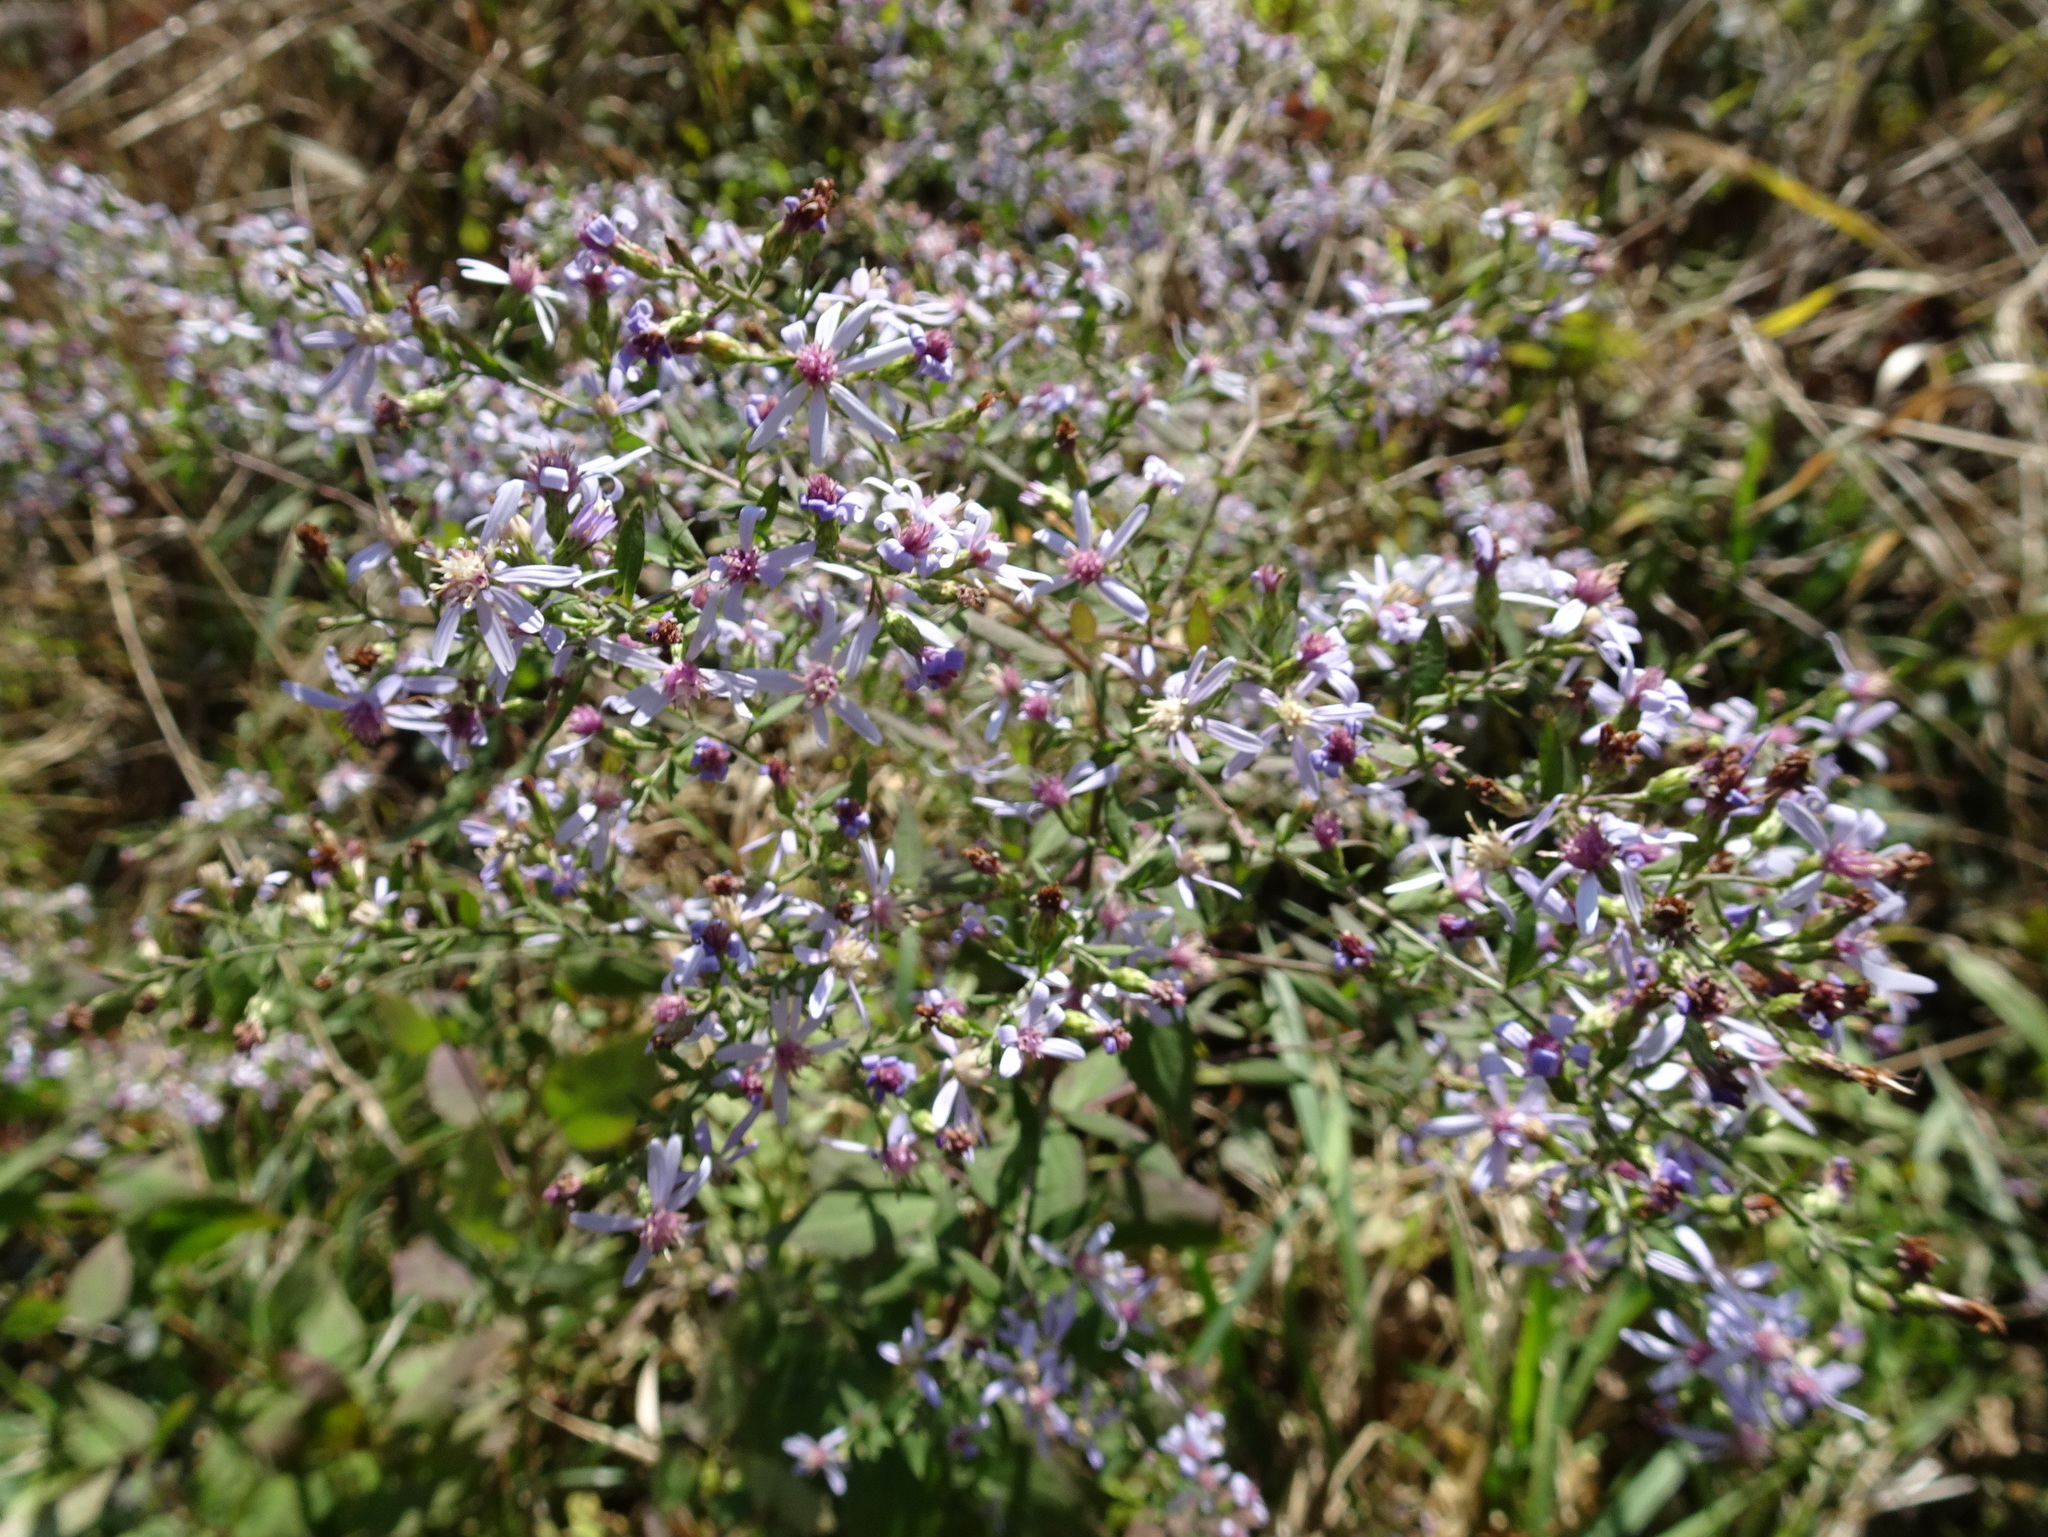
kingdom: Plantae
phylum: Tracheophyta
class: Magnoliopsida
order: Asterales
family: Asteraceae
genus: Symphyotrichum
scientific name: Symphyotrichum lateriflorum
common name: Calico aster
